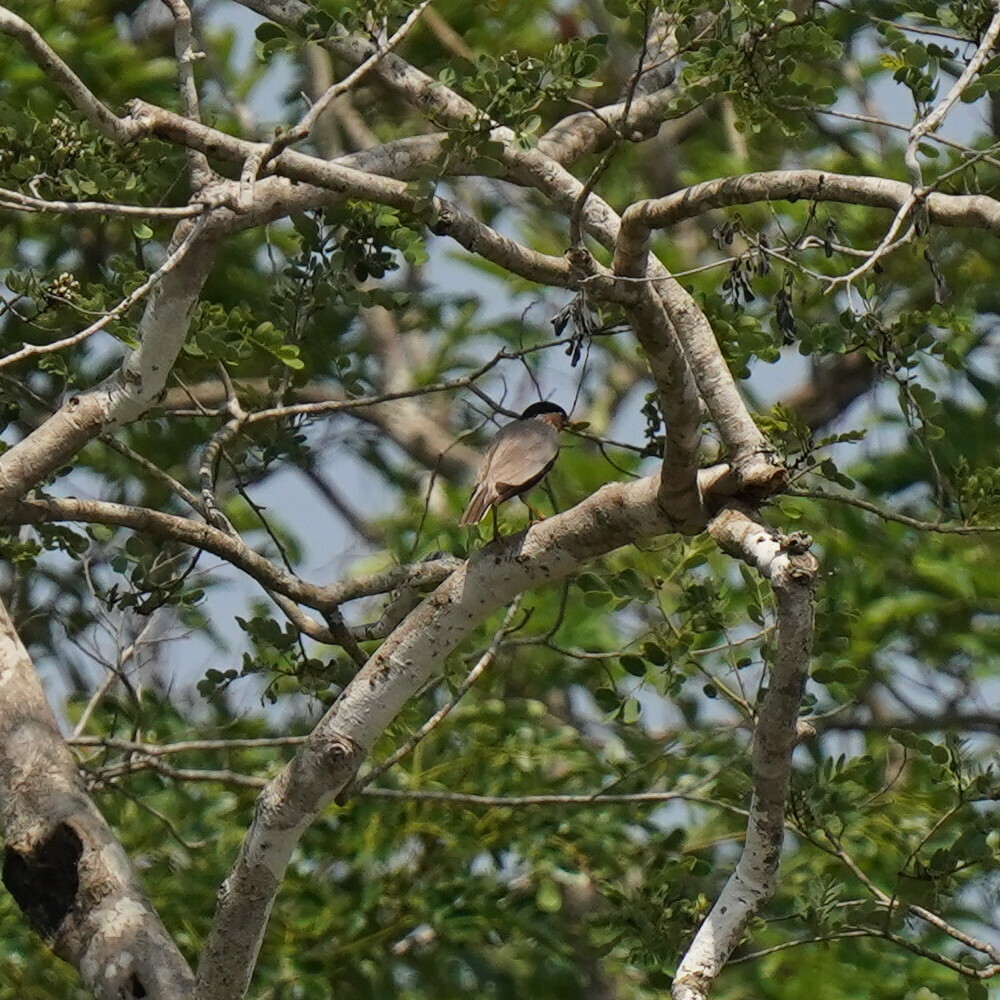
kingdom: Animalia
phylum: Chordata
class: Aves
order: Passeriformes
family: Sturnidae
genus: Sturnia
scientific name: Sturnia pagodarum
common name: Brahminy starling
